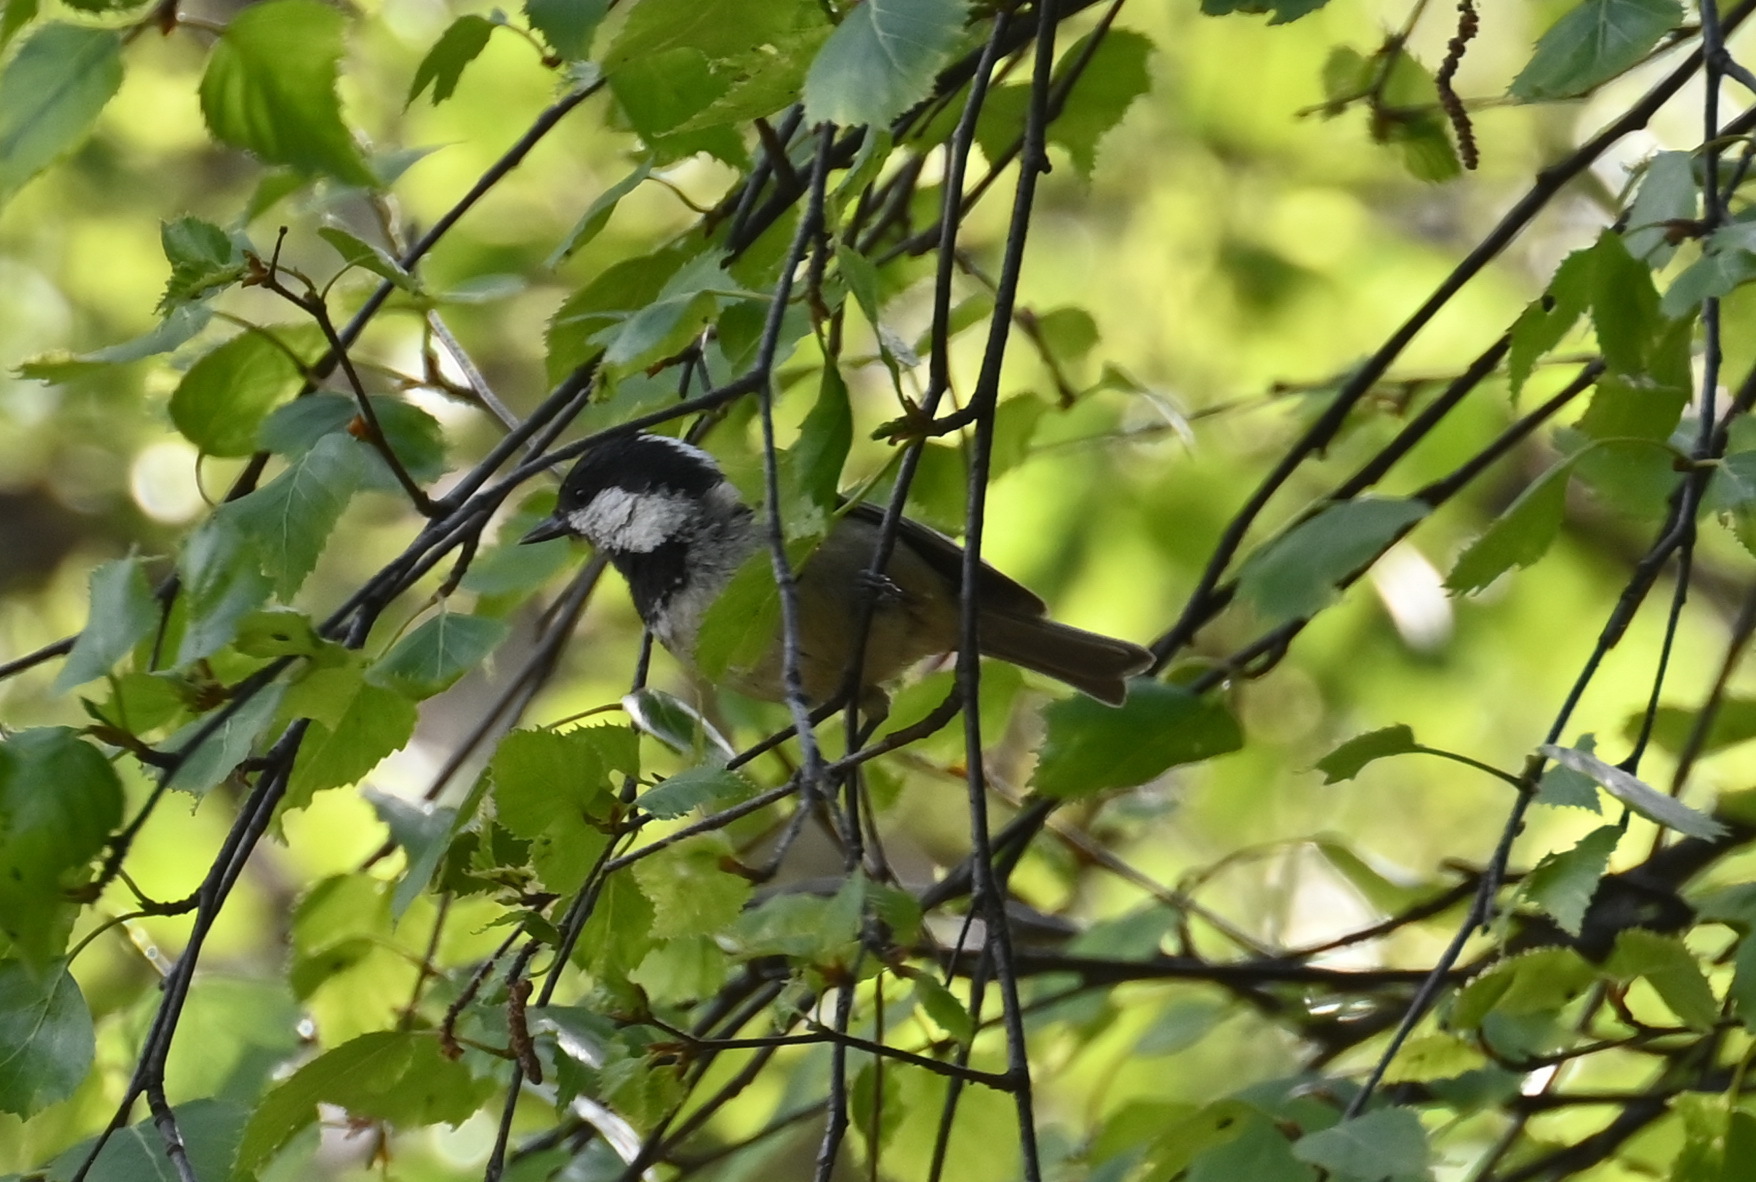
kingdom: Animalia
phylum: Chordata
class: Aves
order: Passeriformes
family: Paridae
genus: Periparus
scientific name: Periparus ater
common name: Coal tit
